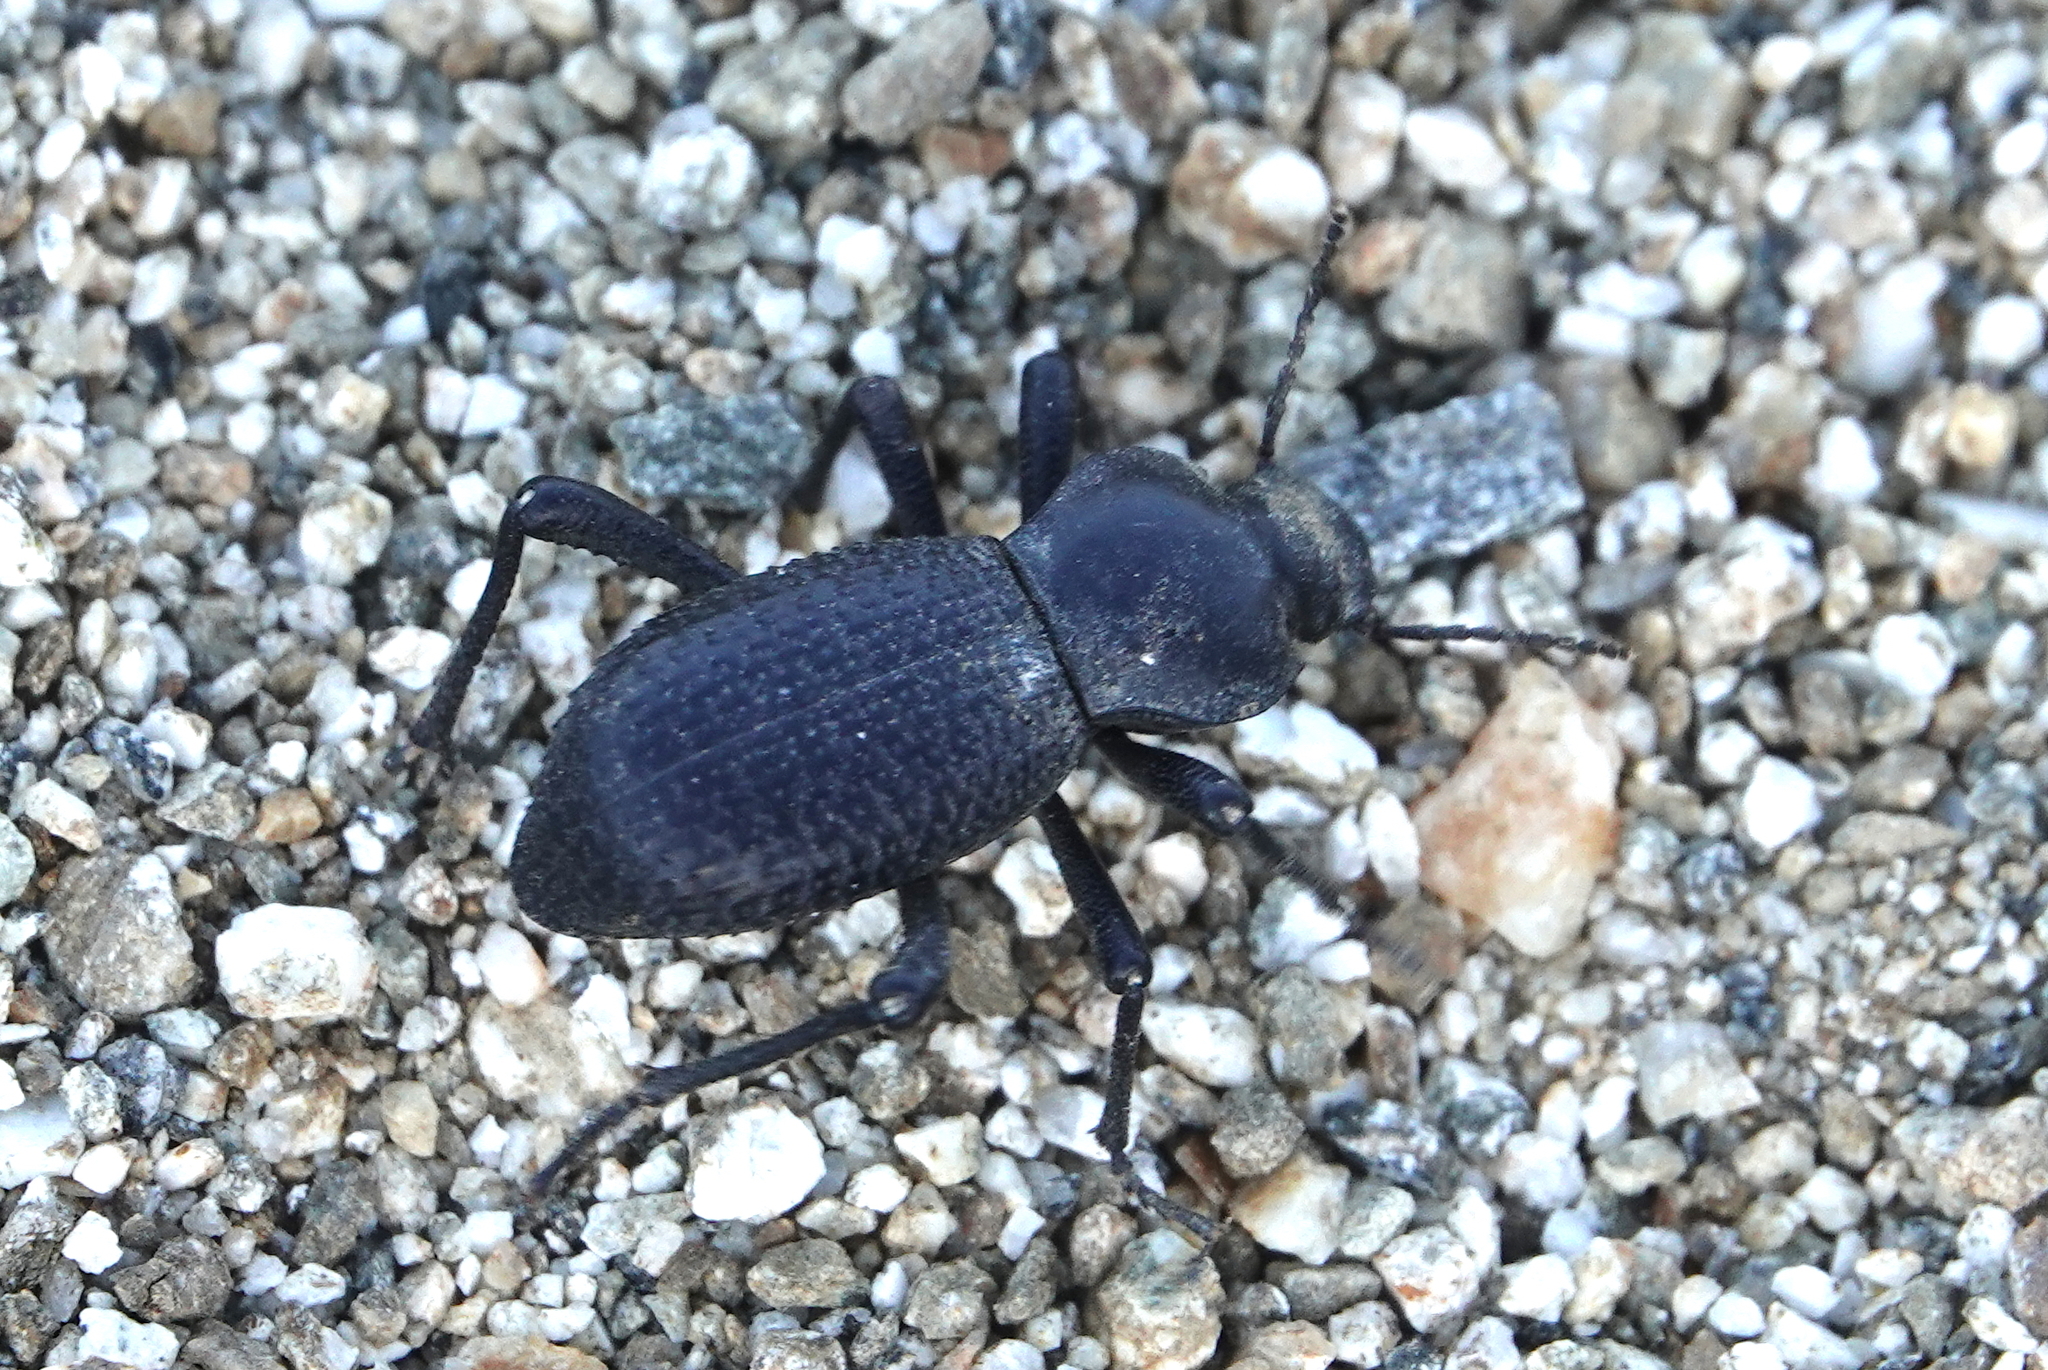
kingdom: Animalia
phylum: Arthropoda
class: Insecta
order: Coleoptera
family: Tenebrionidae
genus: Cryptoglossa
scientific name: Cryptoglossa muricata
